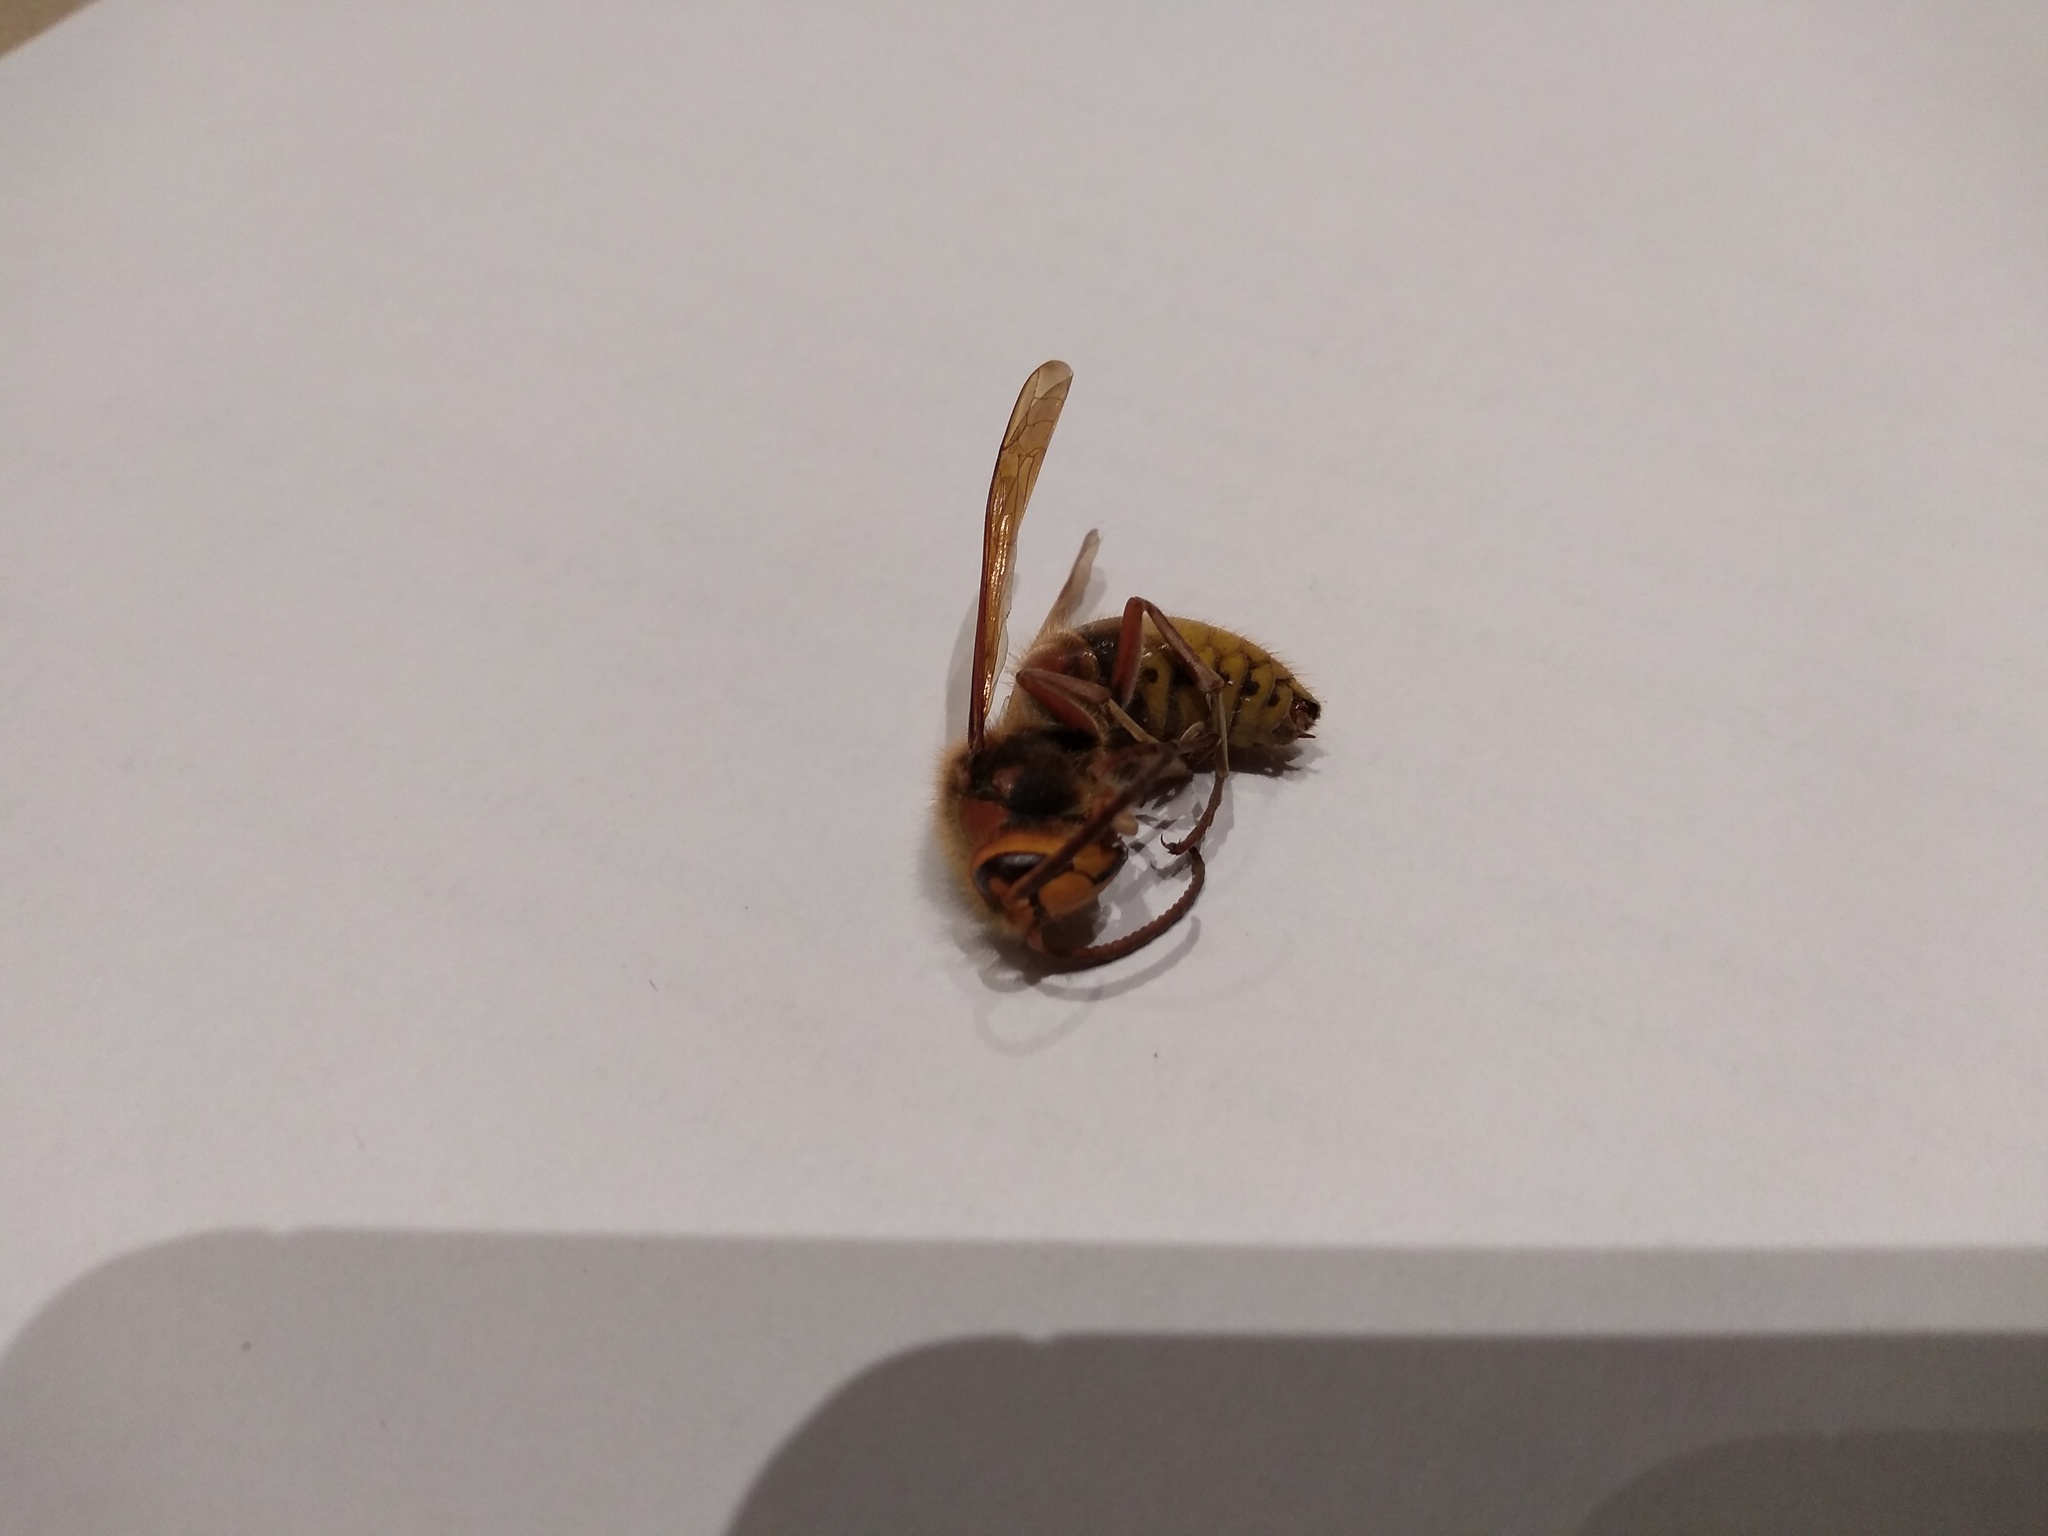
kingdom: Animalia
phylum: Arthropoda
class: Insecta
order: Hymenoptera
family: Vespidae
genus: Vespa
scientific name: Vespa crabro
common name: Hornet
